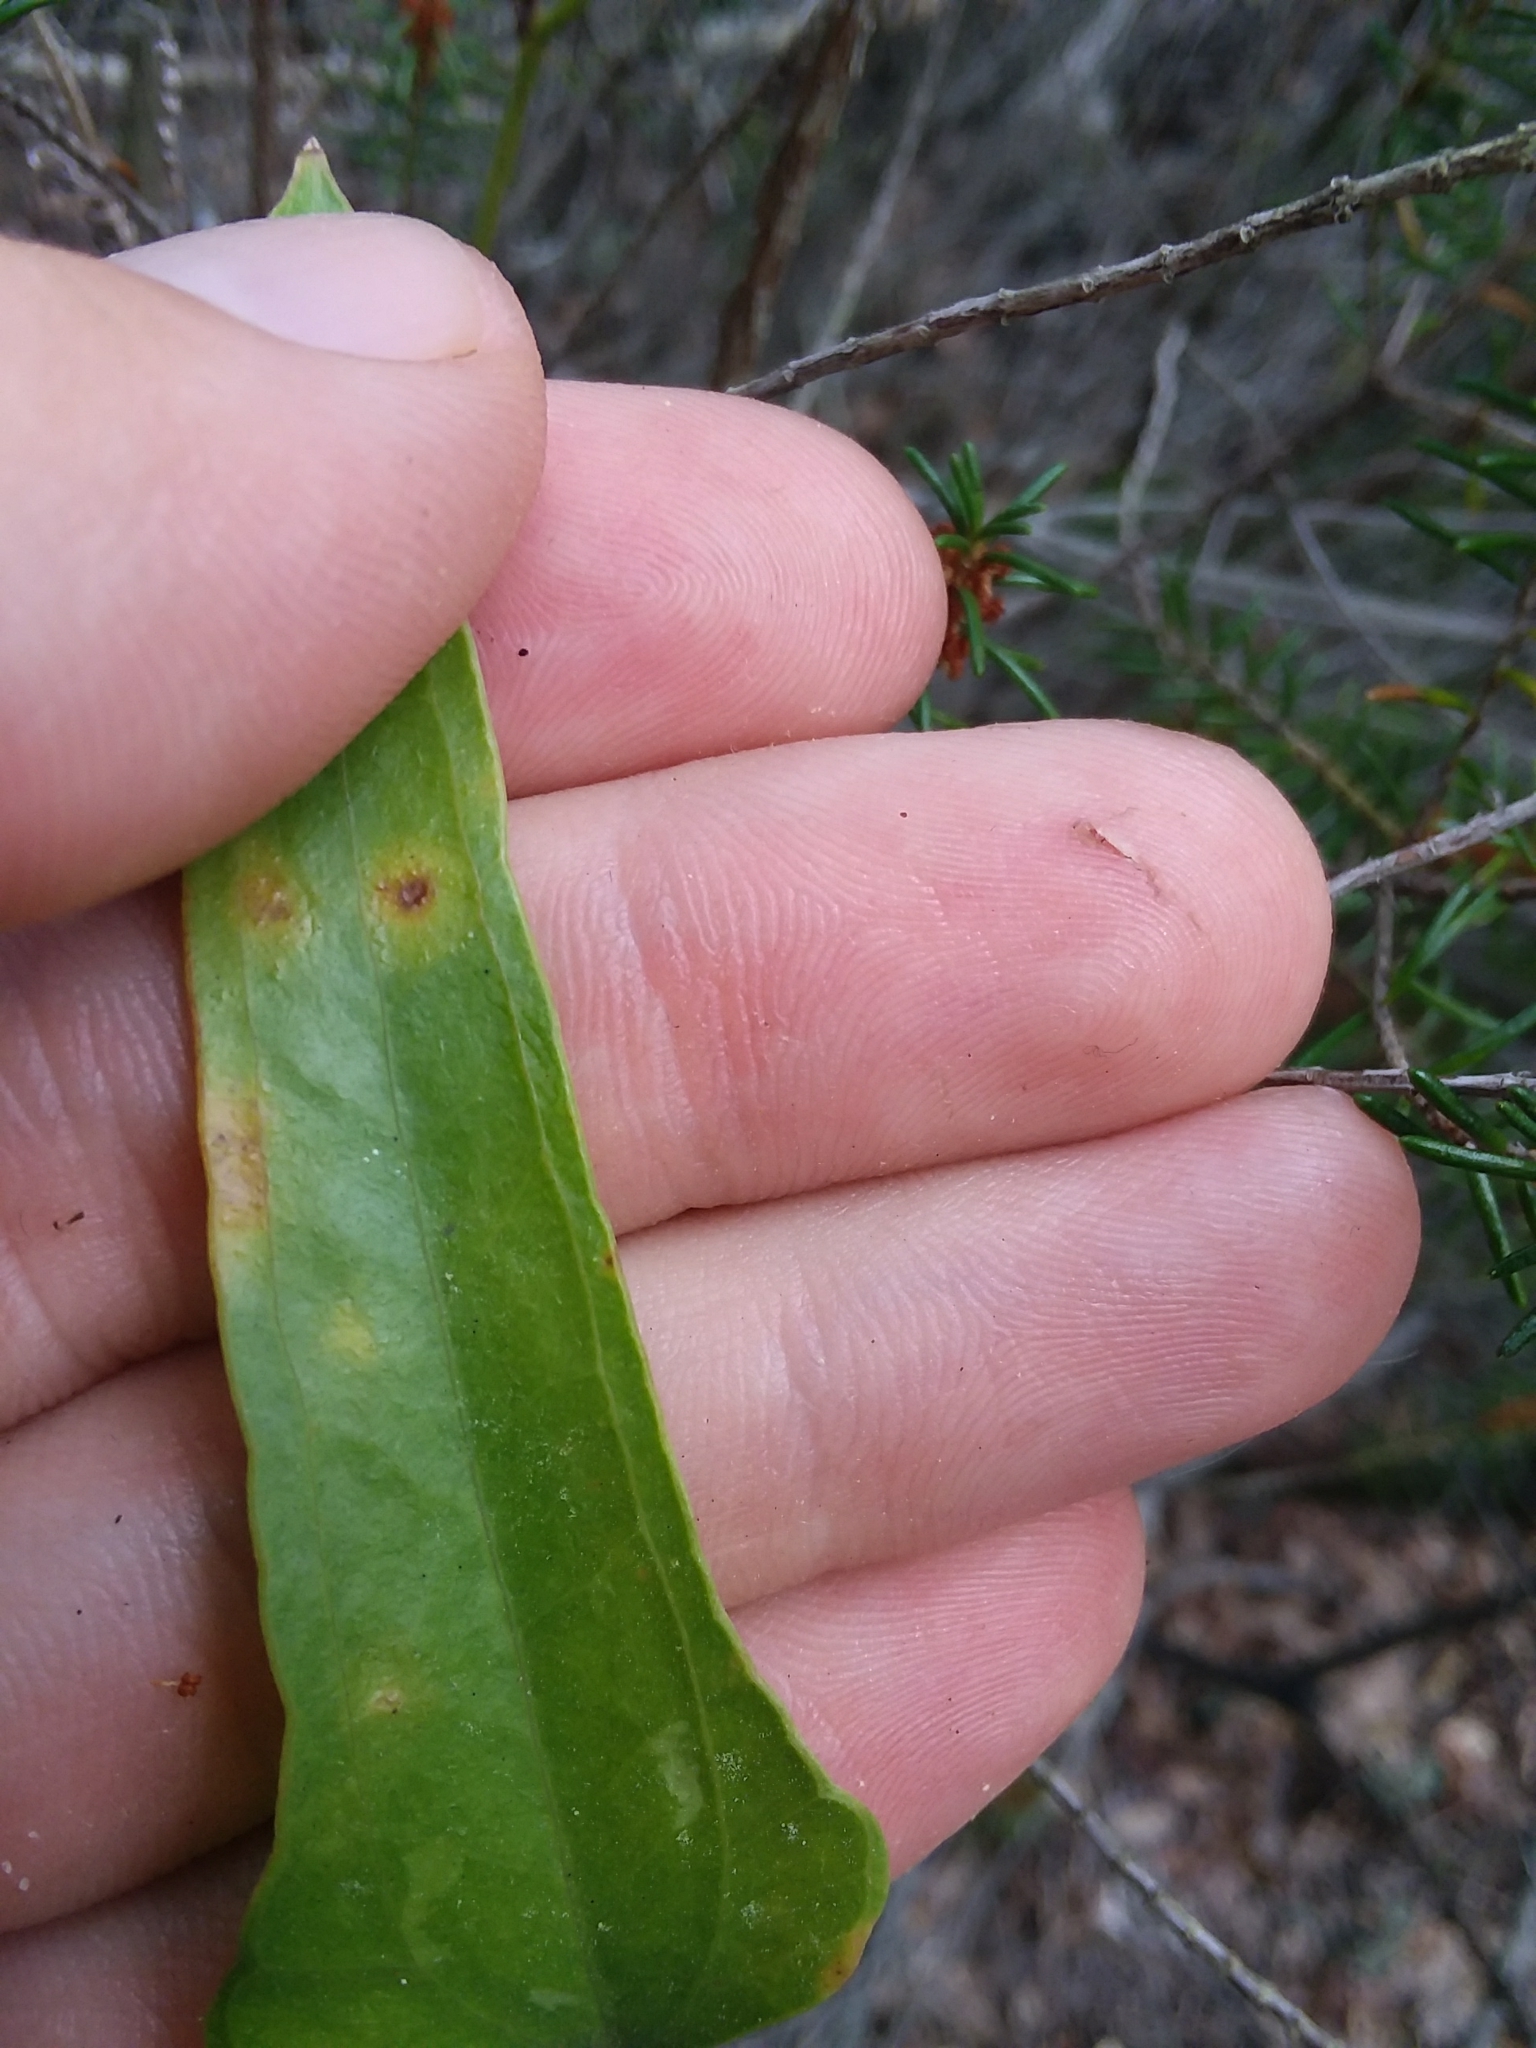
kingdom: Plantae
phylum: Tracheophyta
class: Liliopsida
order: Liliales
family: Smilacaceae
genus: Smilax
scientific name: Smilax auriculata
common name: Wild bamboo
